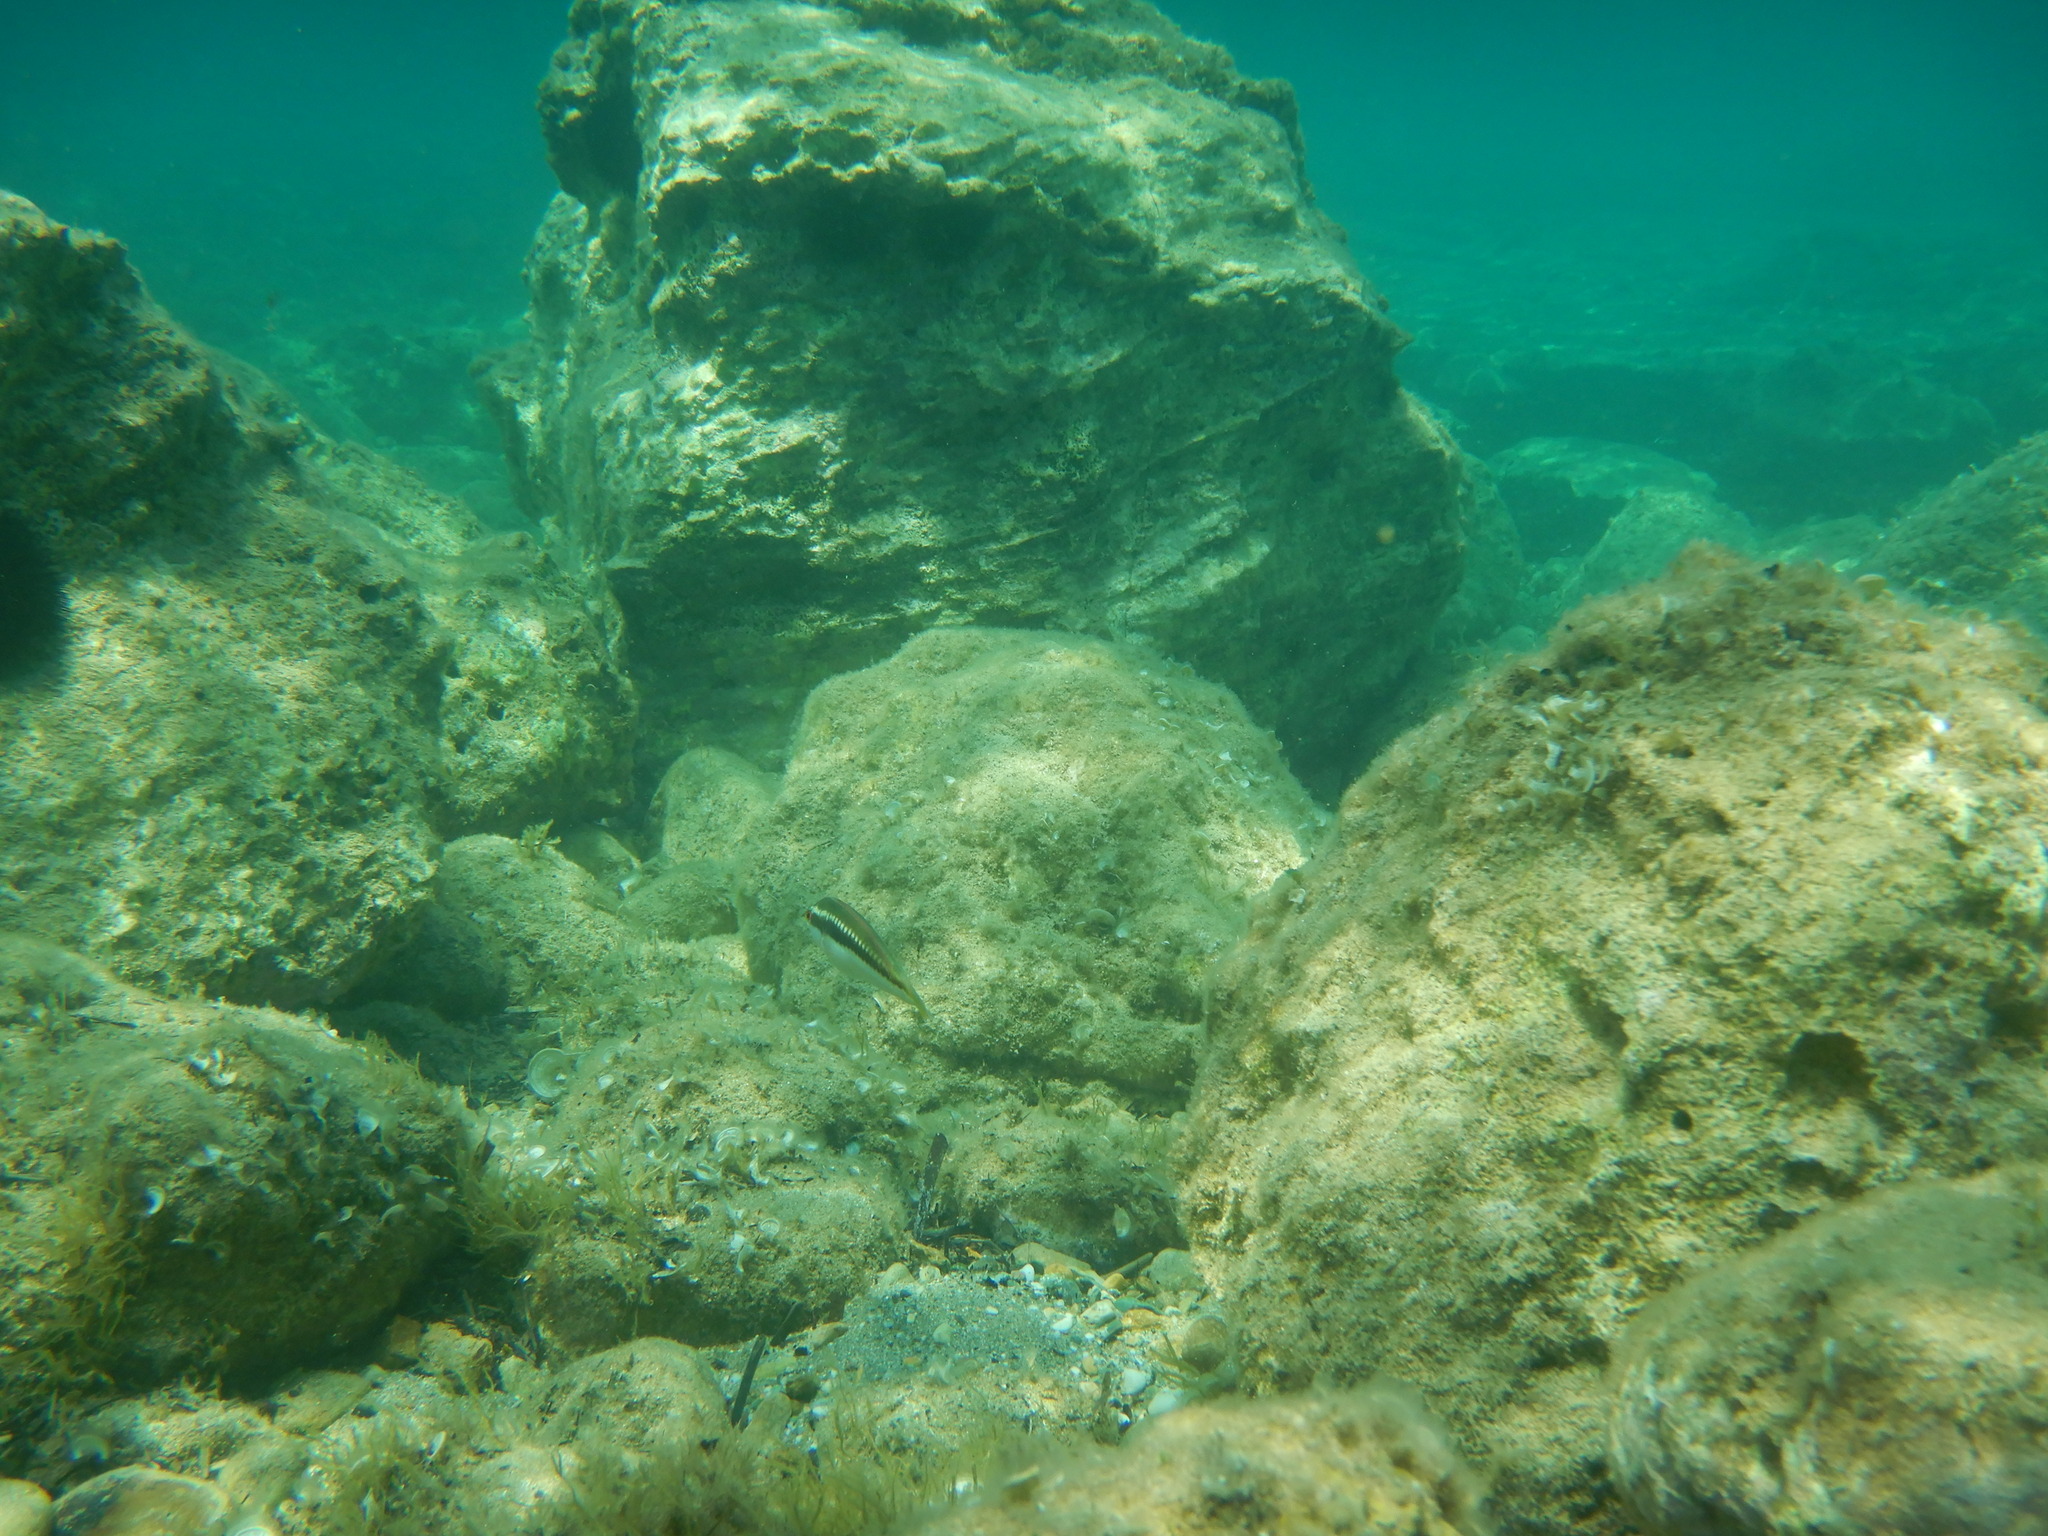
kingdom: Animalia
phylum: Chordata
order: Perciformes
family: Labridae
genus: Coris
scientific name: Coris julis
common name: Rainbow wrasse
